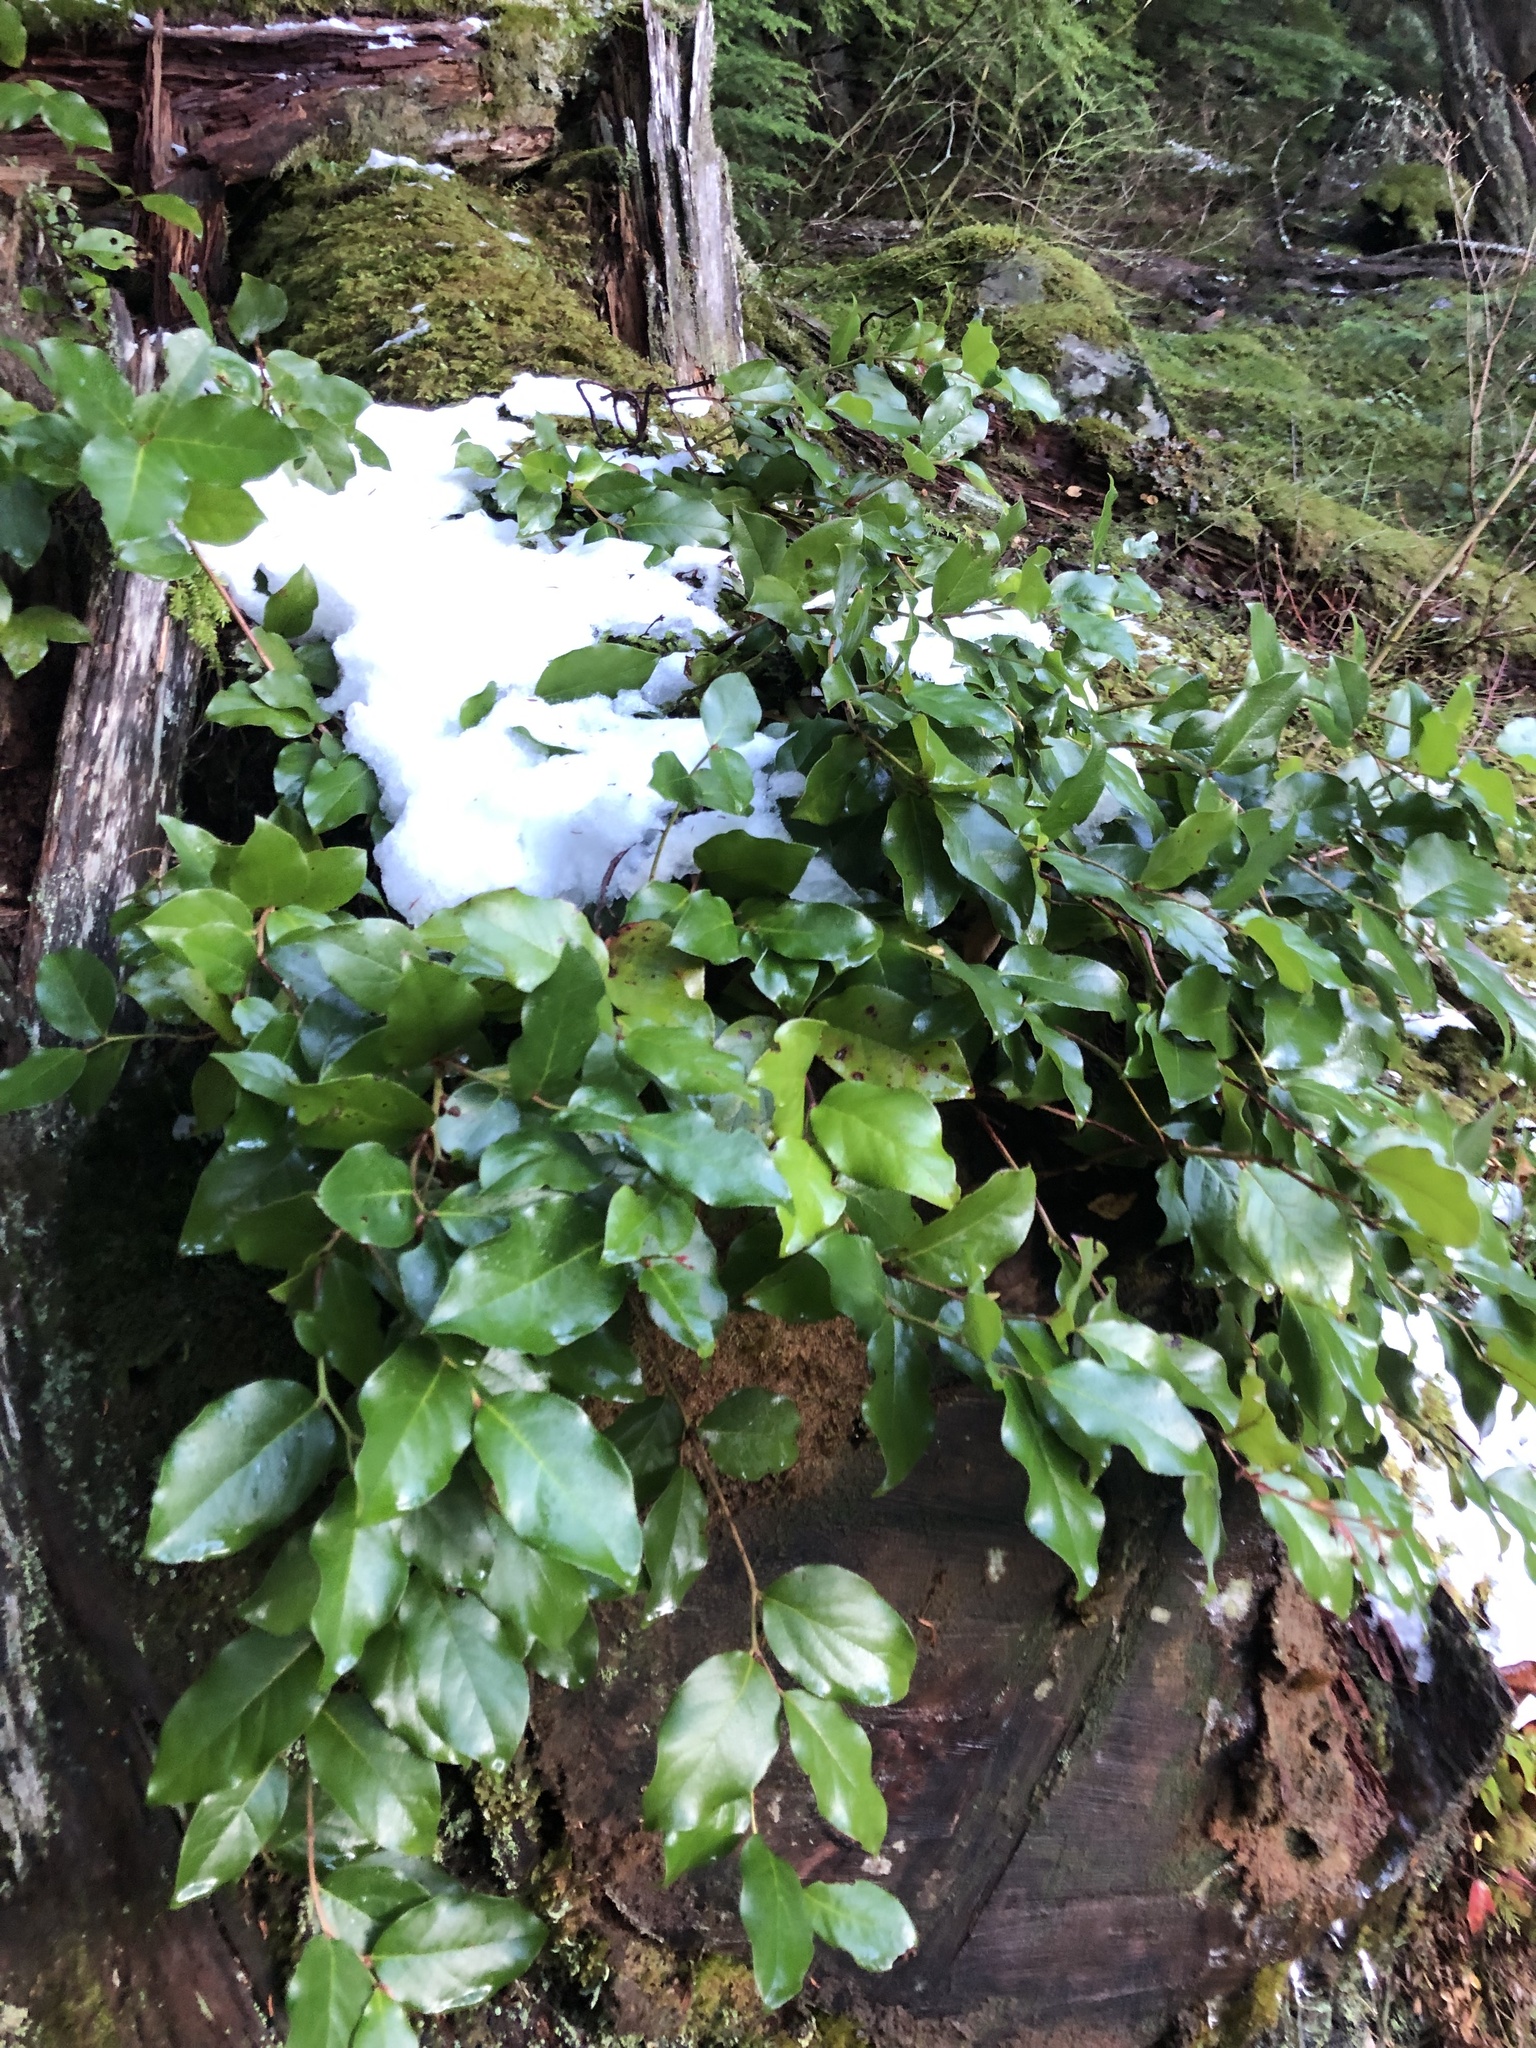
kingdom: Plantae
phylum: Tracheophyta
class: Magnoliopsida
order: Ericales
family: Ericaceae
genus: Gaultheria
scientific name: Gaultheria shallon
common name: Shallon
